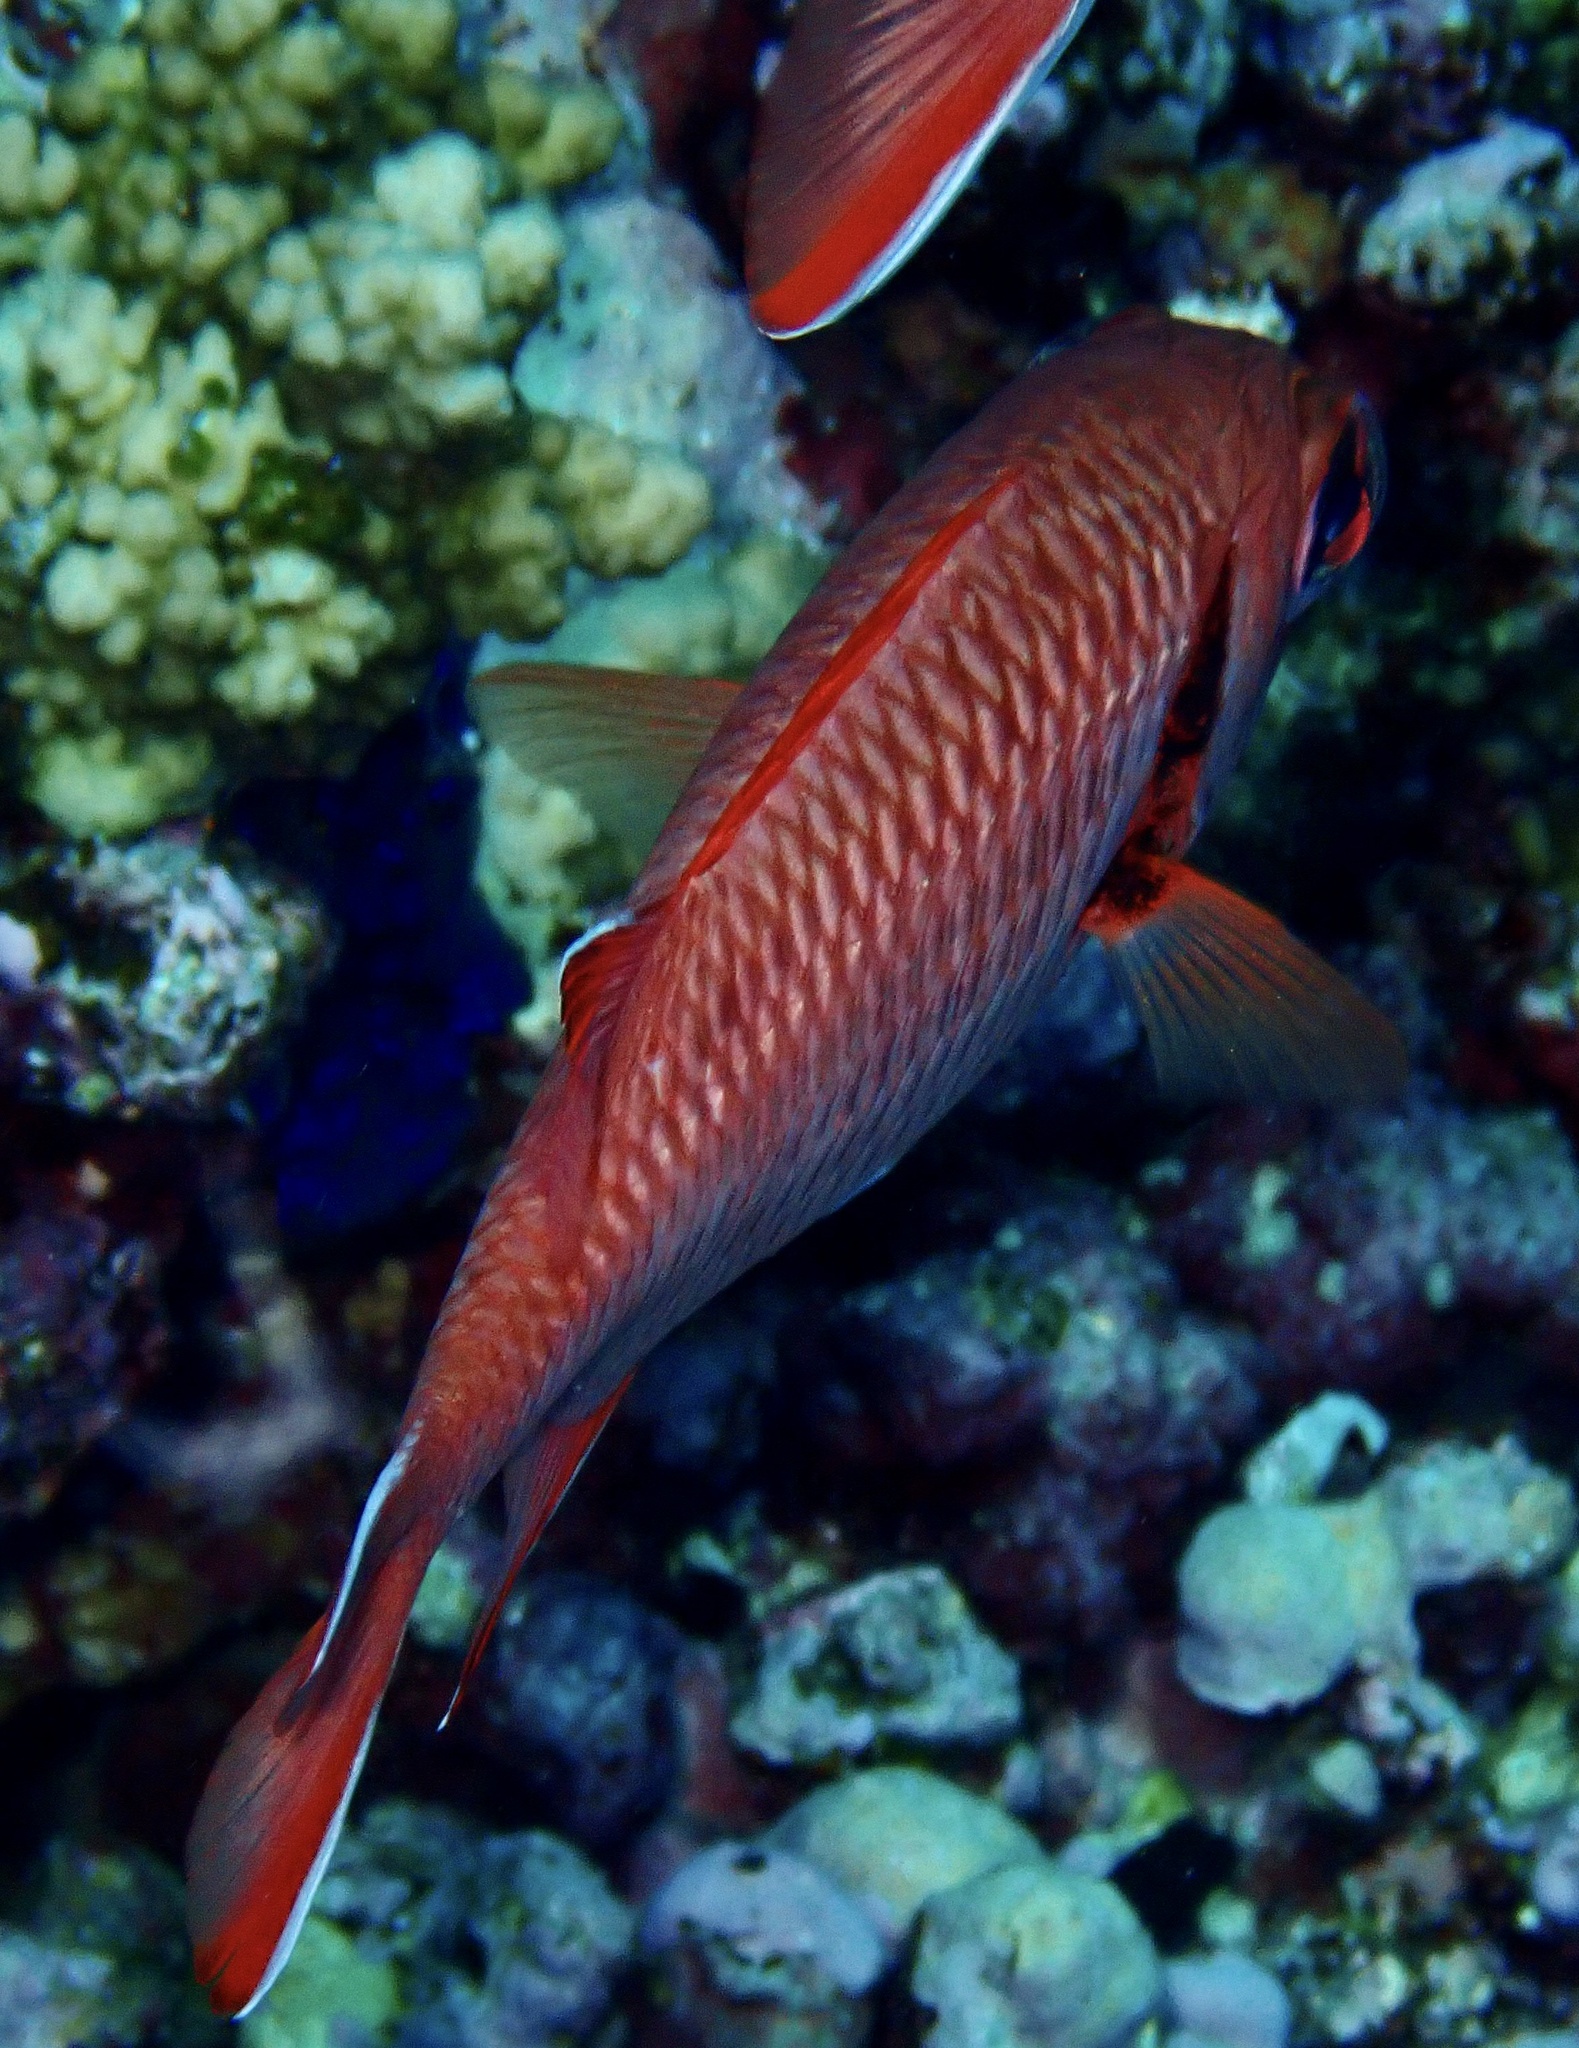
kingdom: Animalia
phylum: Chordata
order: Beryciformes
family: Holocentridae
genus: Myripristis
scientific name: Myripristis murdjan
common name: Big-eye soldierfish
